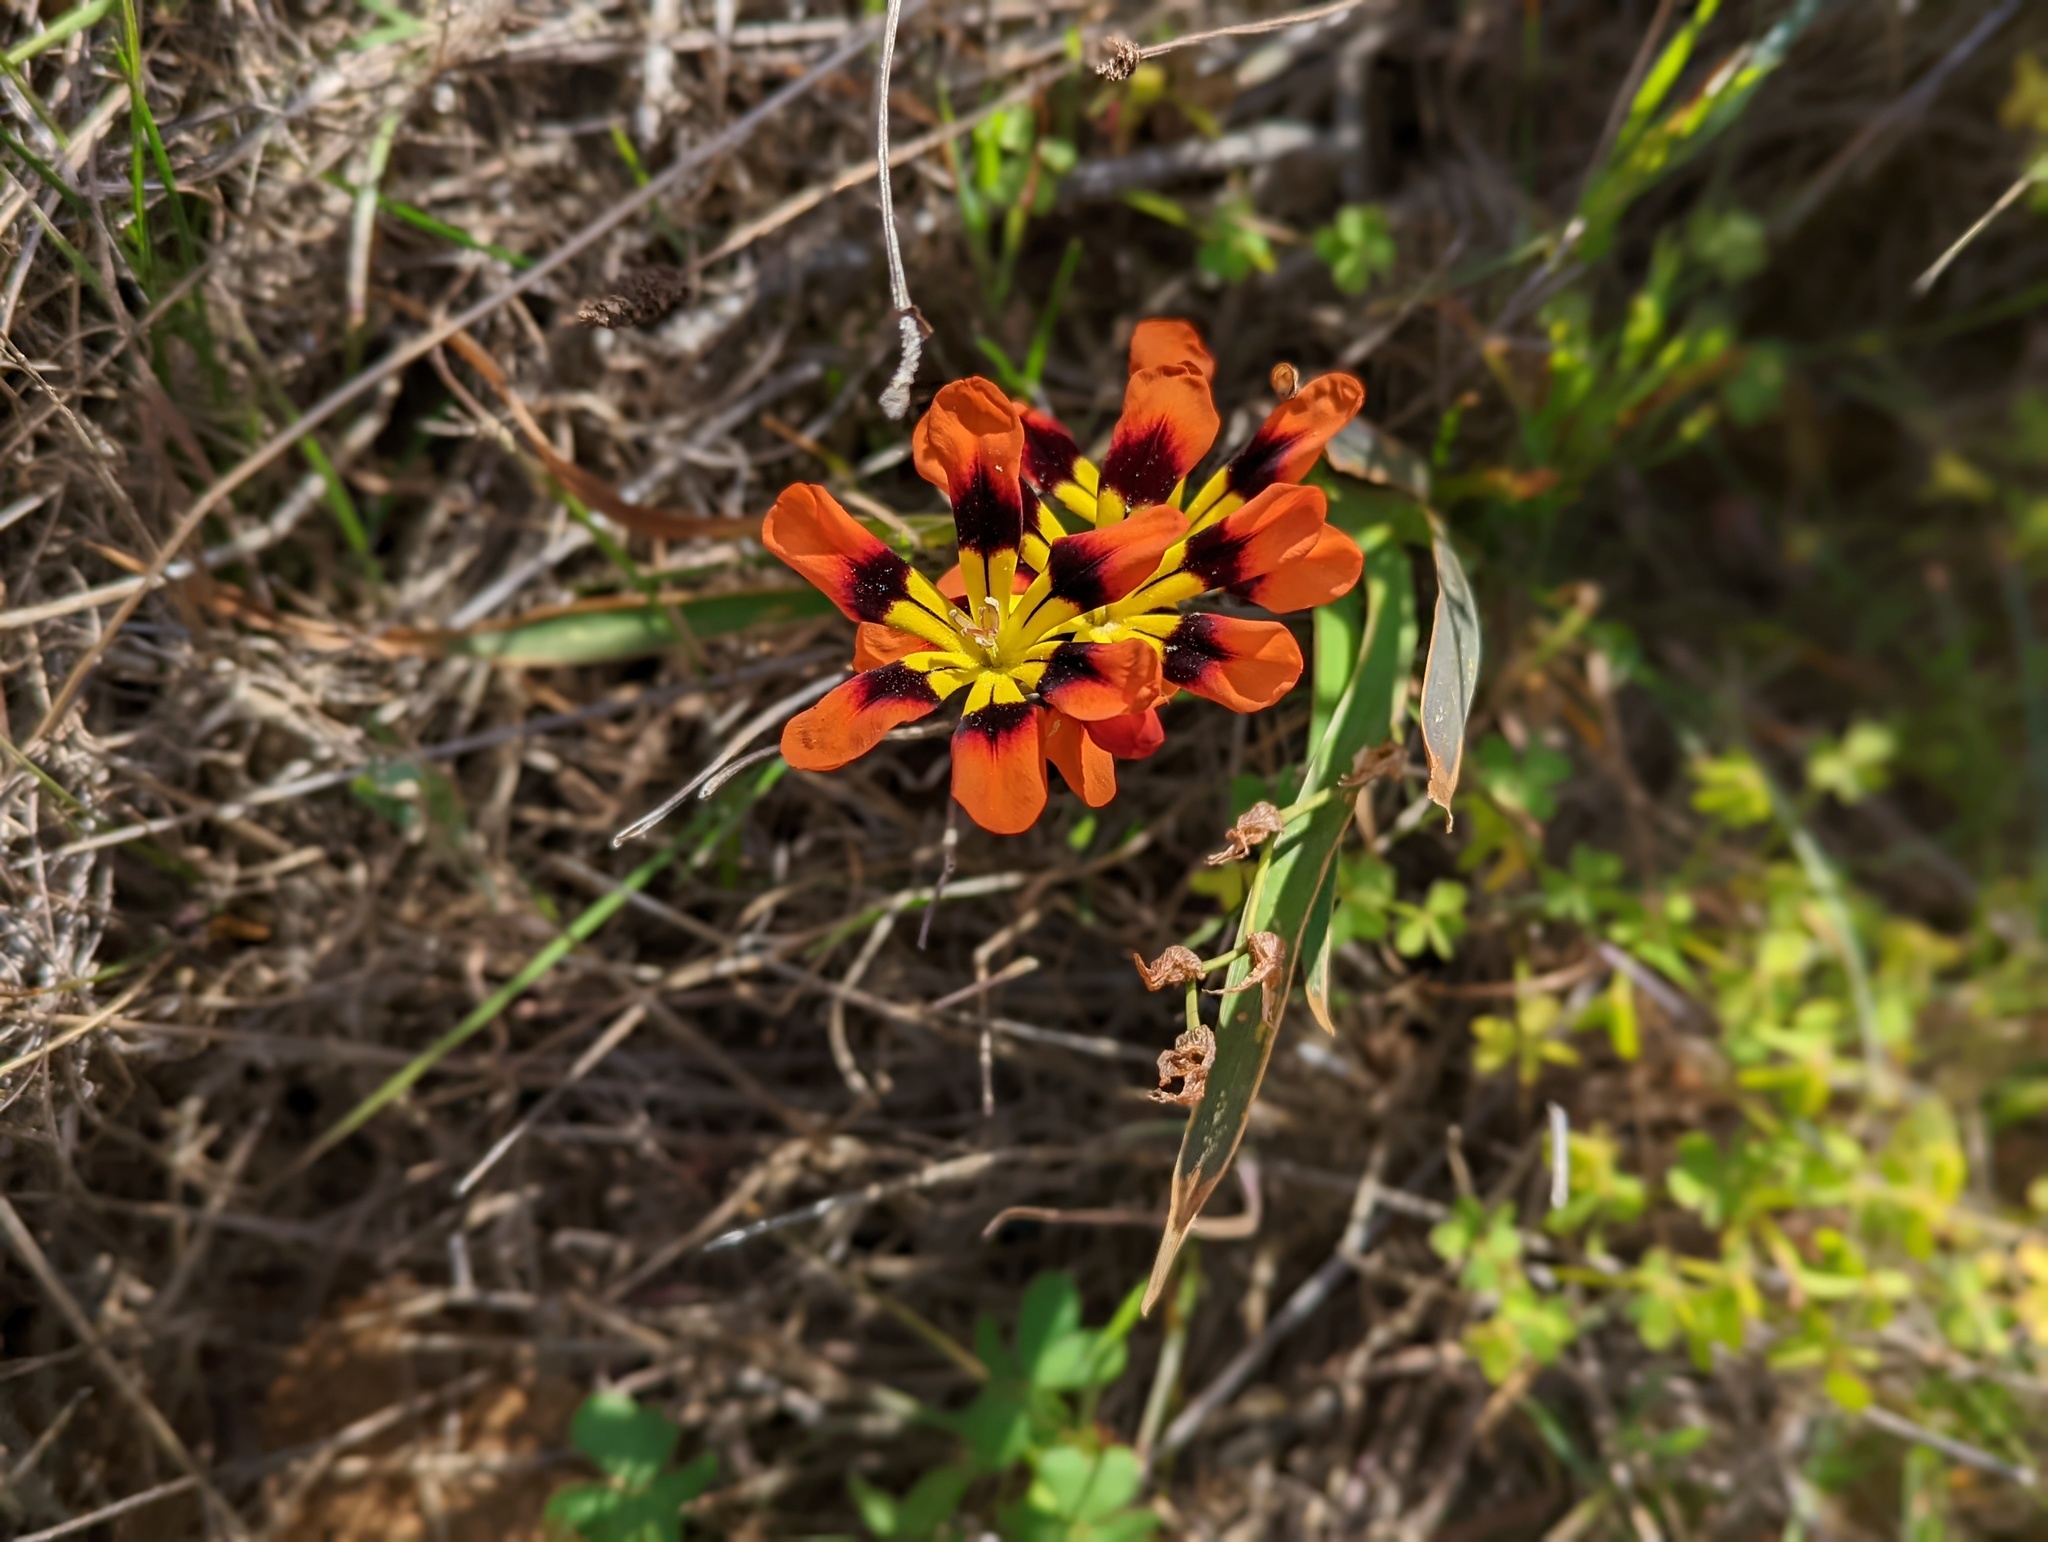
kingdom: Plantae
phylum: Tracheophyta
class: Liliopsida
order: Asparagales
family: Iridaceae
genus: Sparaxis
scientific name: Sparaxis tricolor
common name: Wandflower
